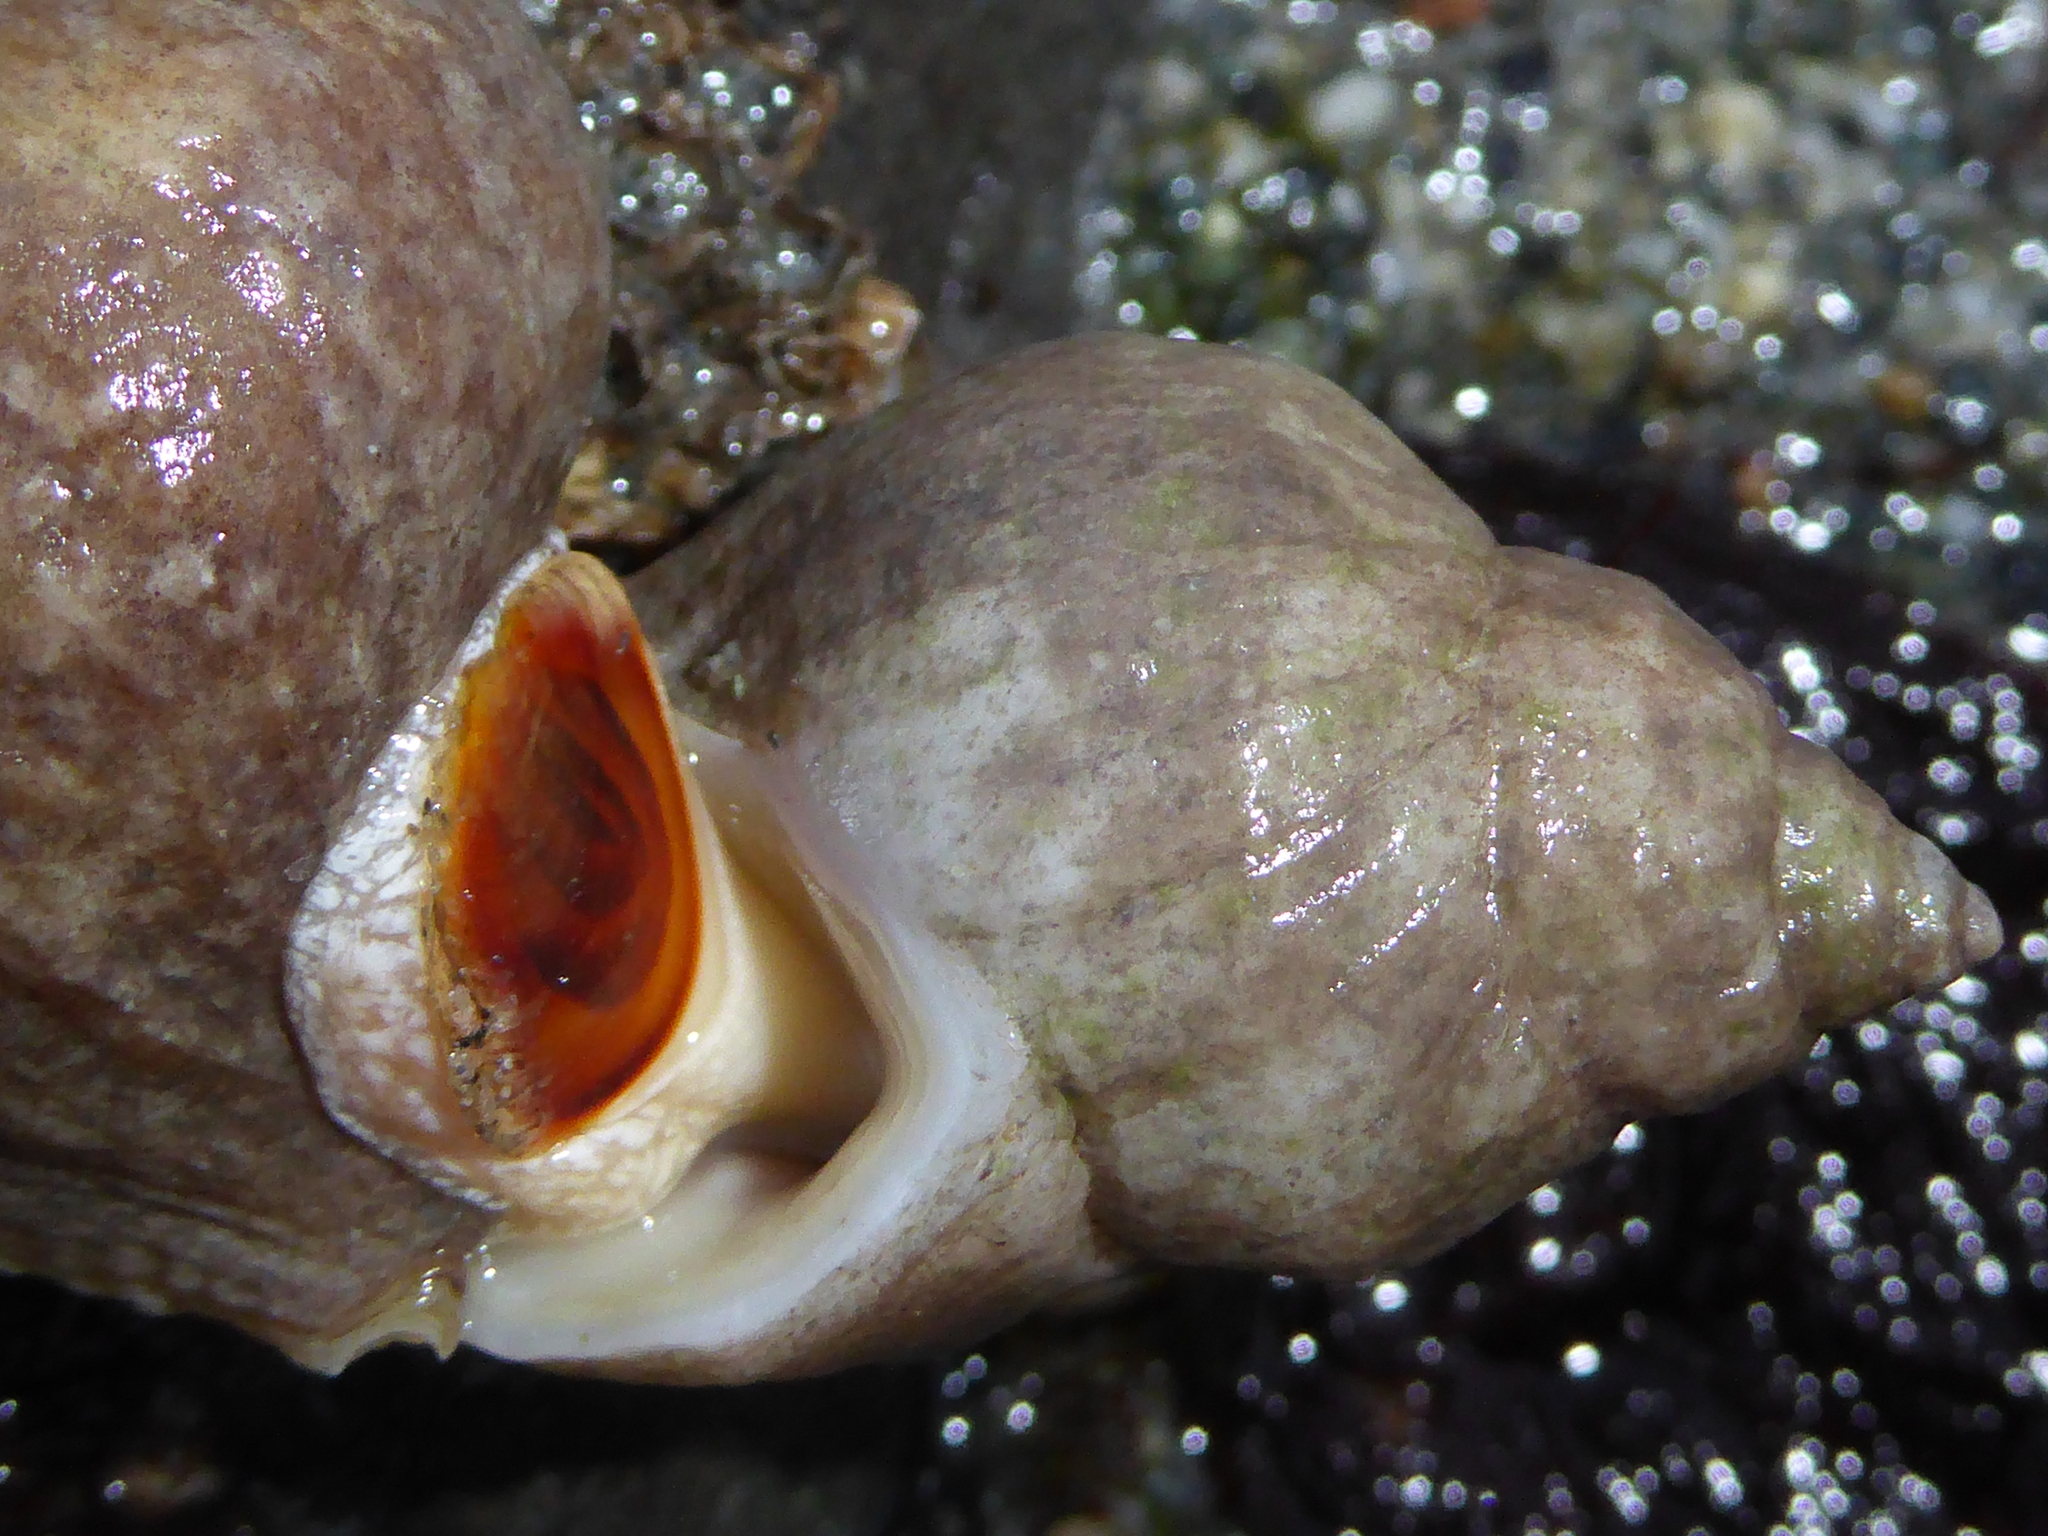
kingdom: Animalia
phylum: Mollusca
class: Gastropoda
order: Neogastropoda
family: Muricidae
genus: Nucella
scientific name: Nucella lamellosa
